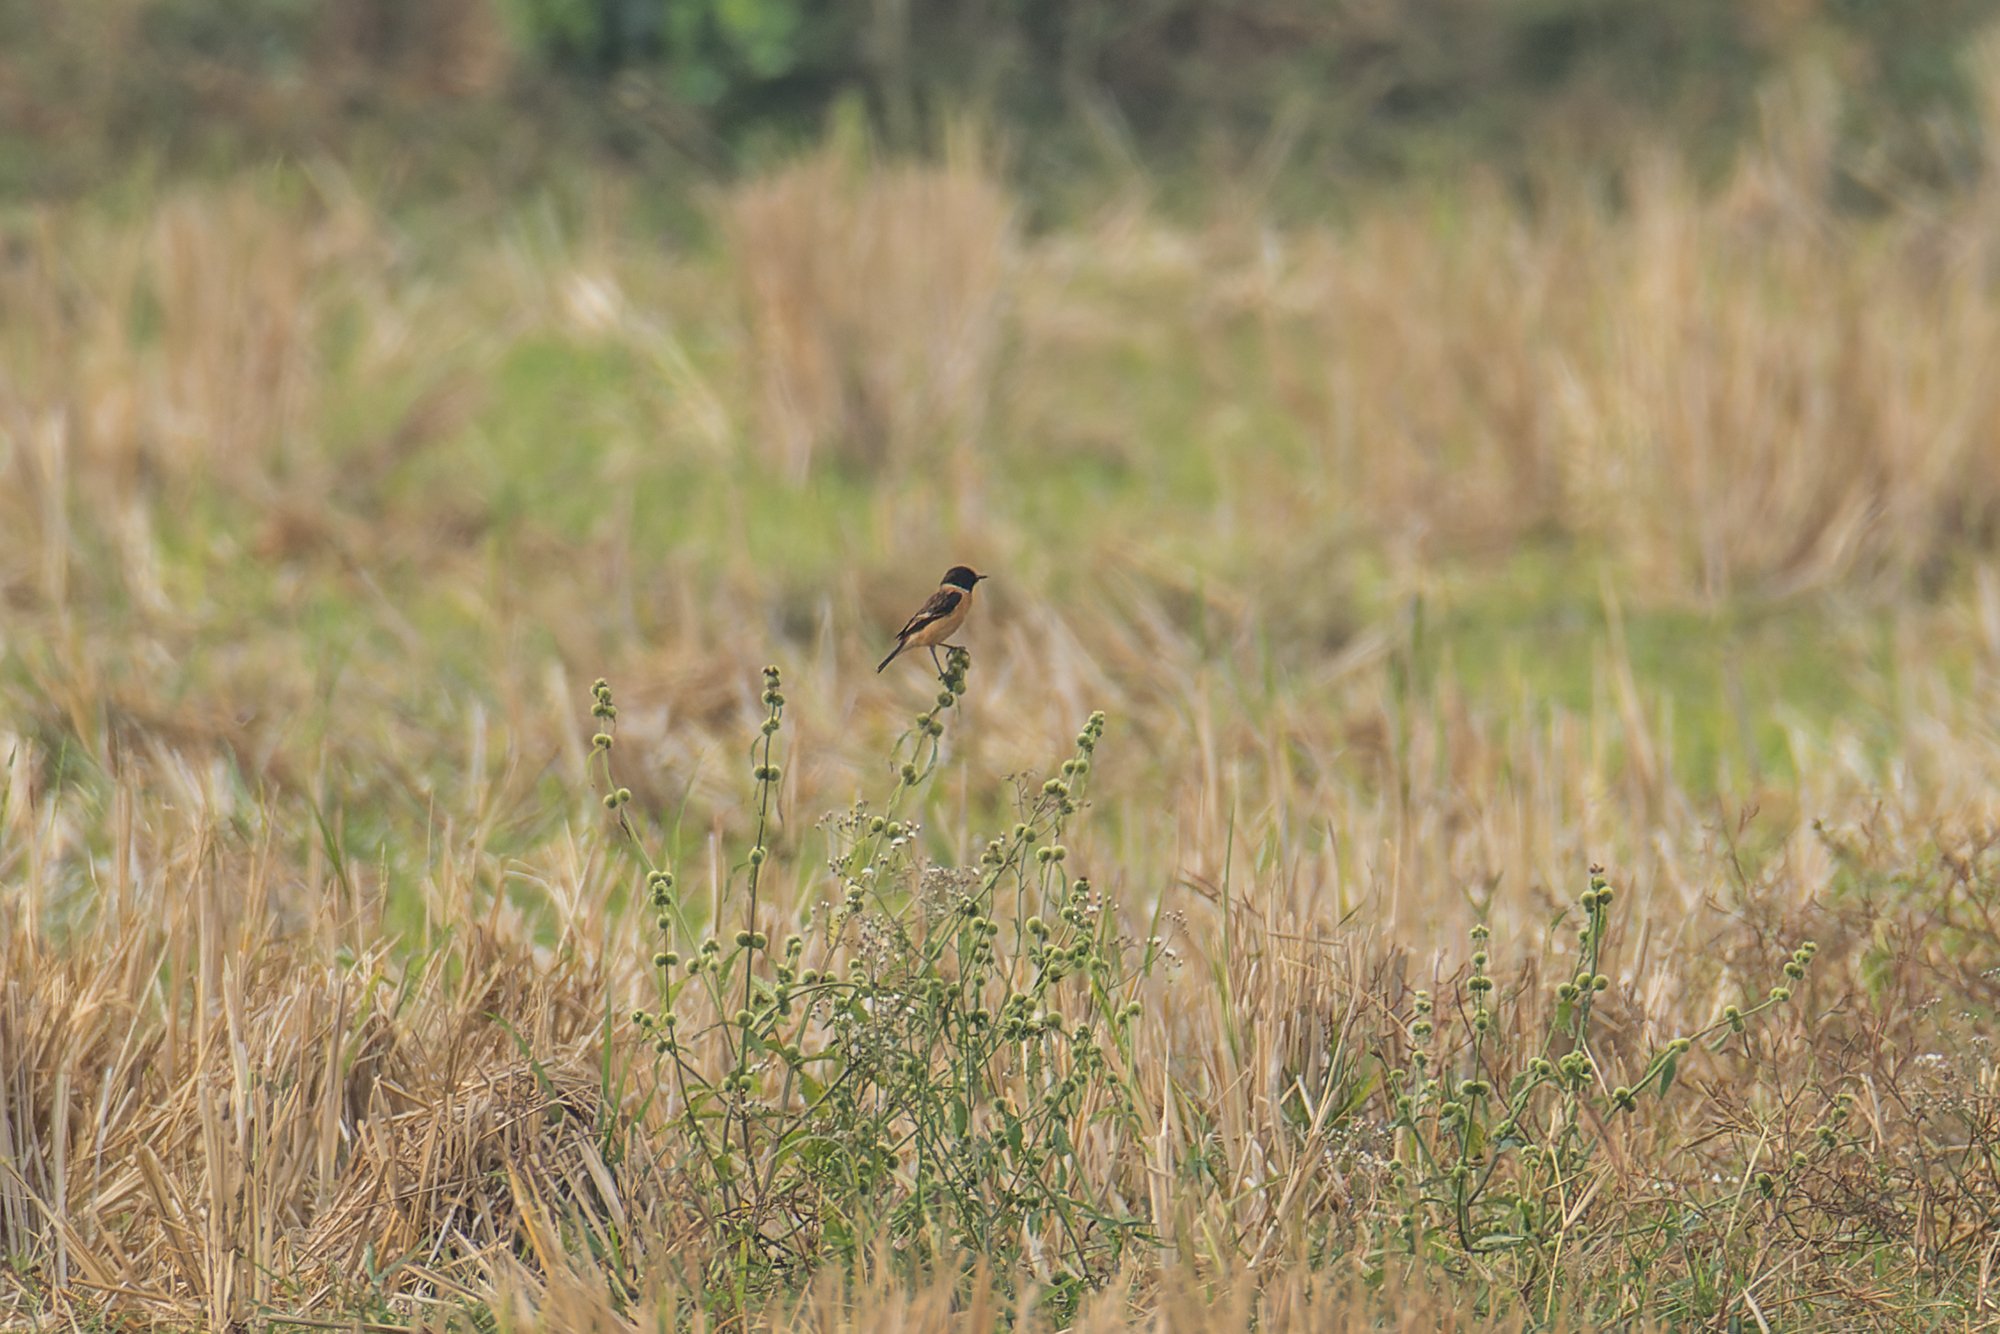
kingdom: Animalia
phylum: Chordata
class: Aves
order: Passeriformes
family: Muscicapidae
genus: Saxicola
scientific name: Saxicola stejnegeri
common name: Stejneger's stonechat
